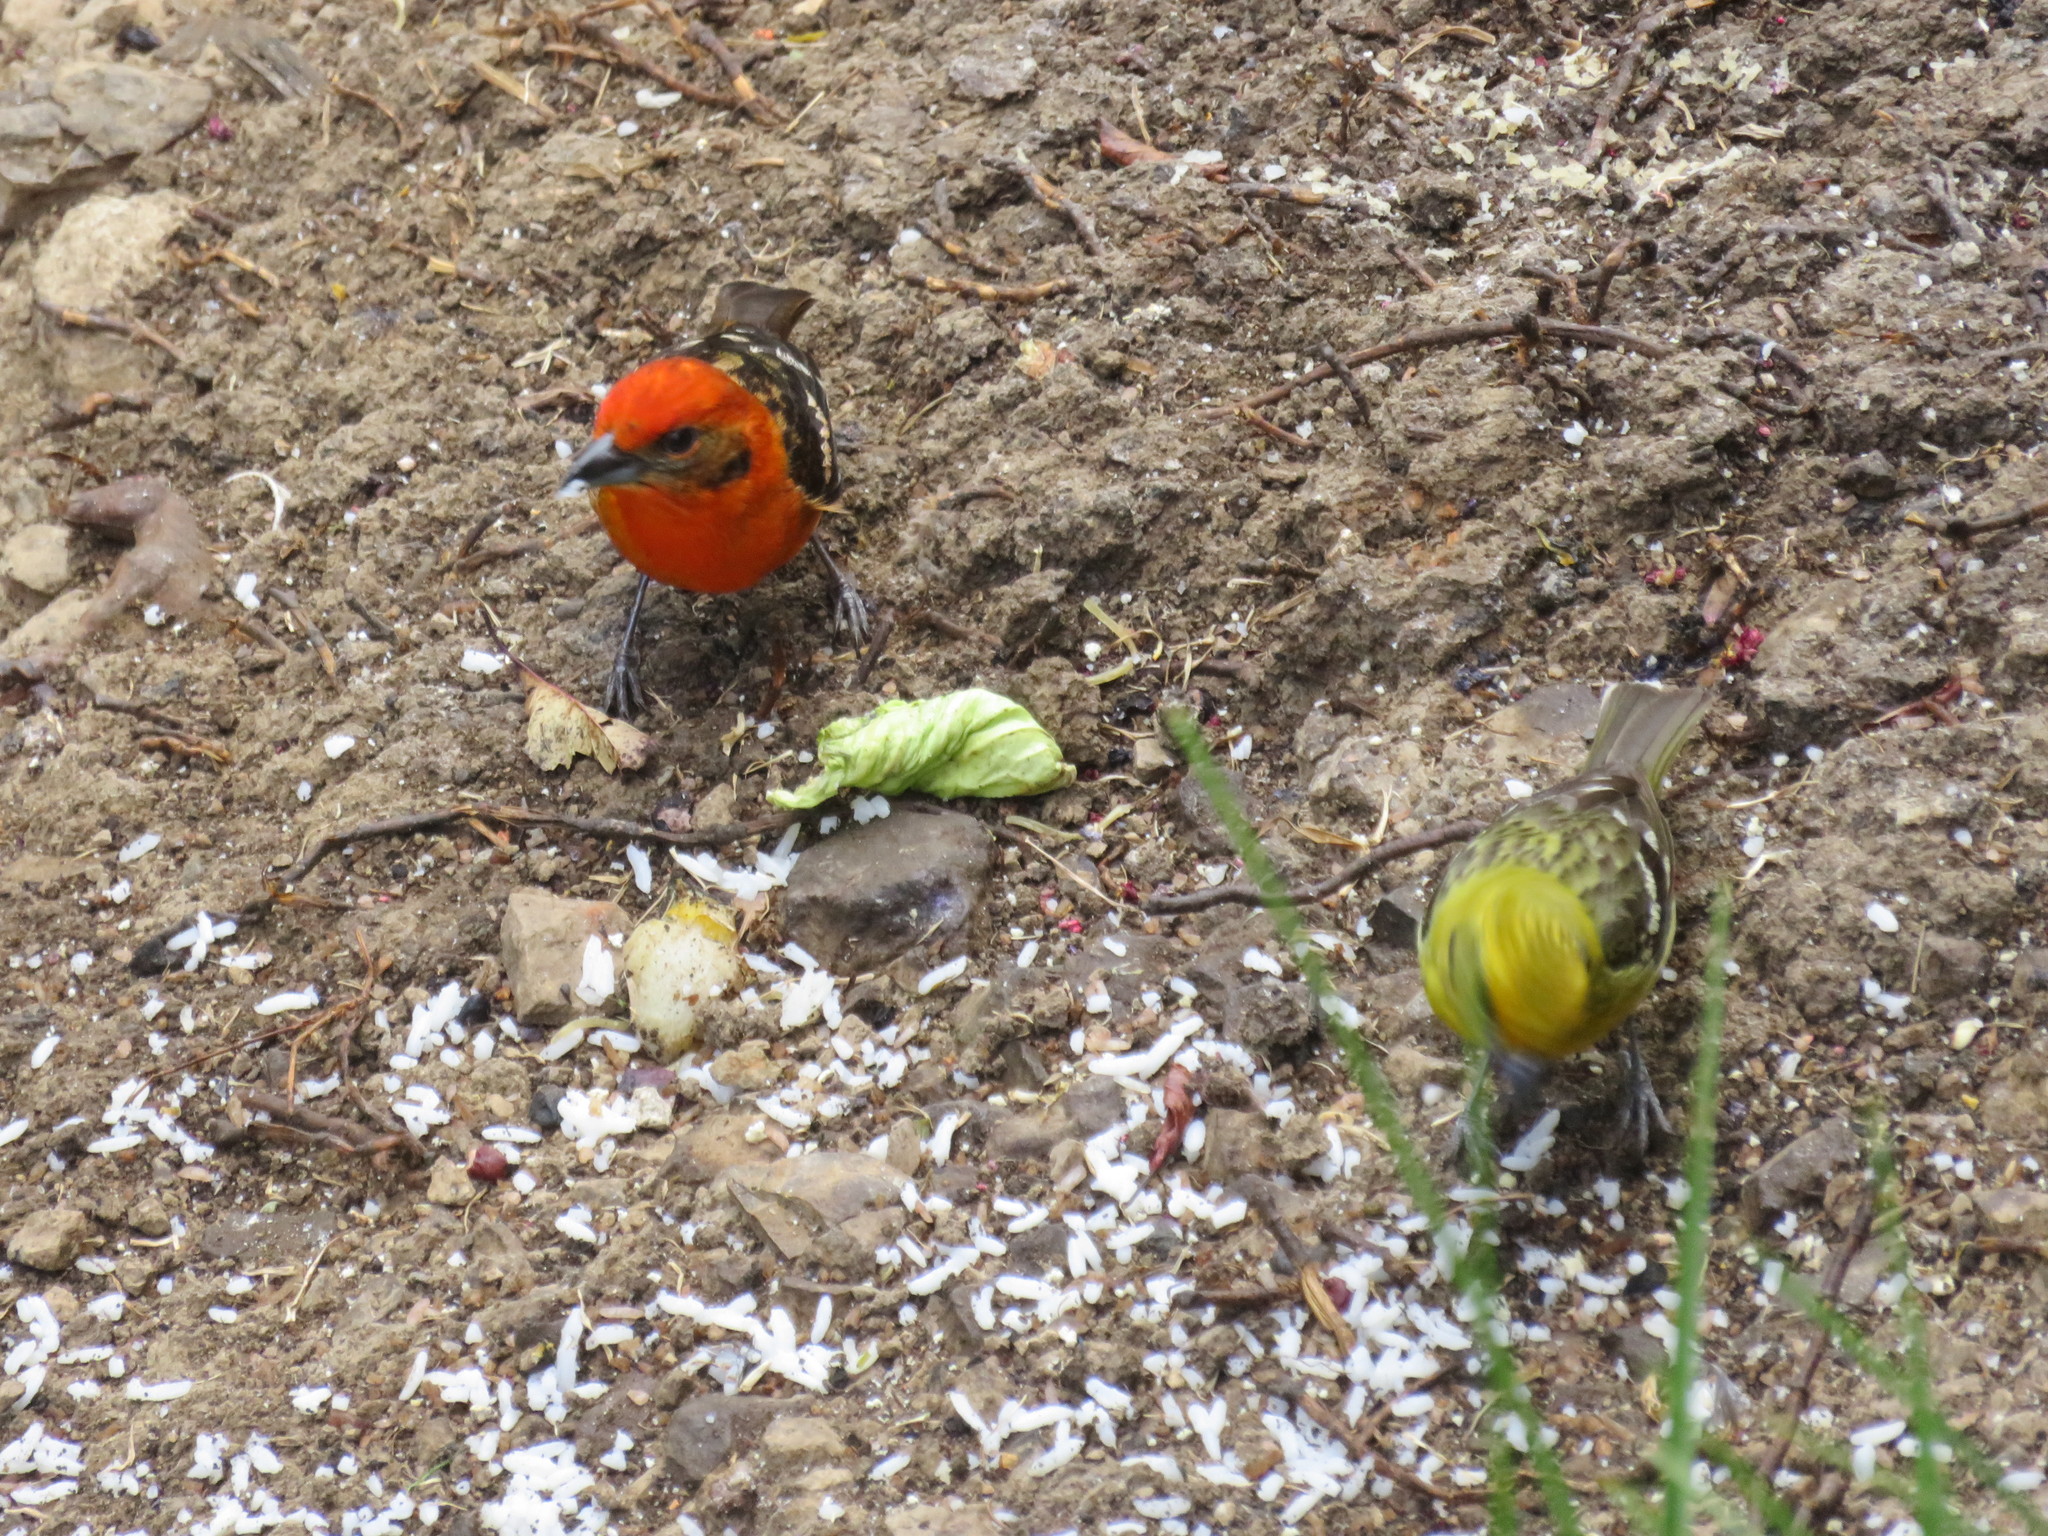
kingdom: Animalia
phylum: Chordata
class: Aves
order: Passeriformes
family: Cardinalidae
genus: Piranga
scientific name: Piranga bidentata
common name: Flame-colored tanager
